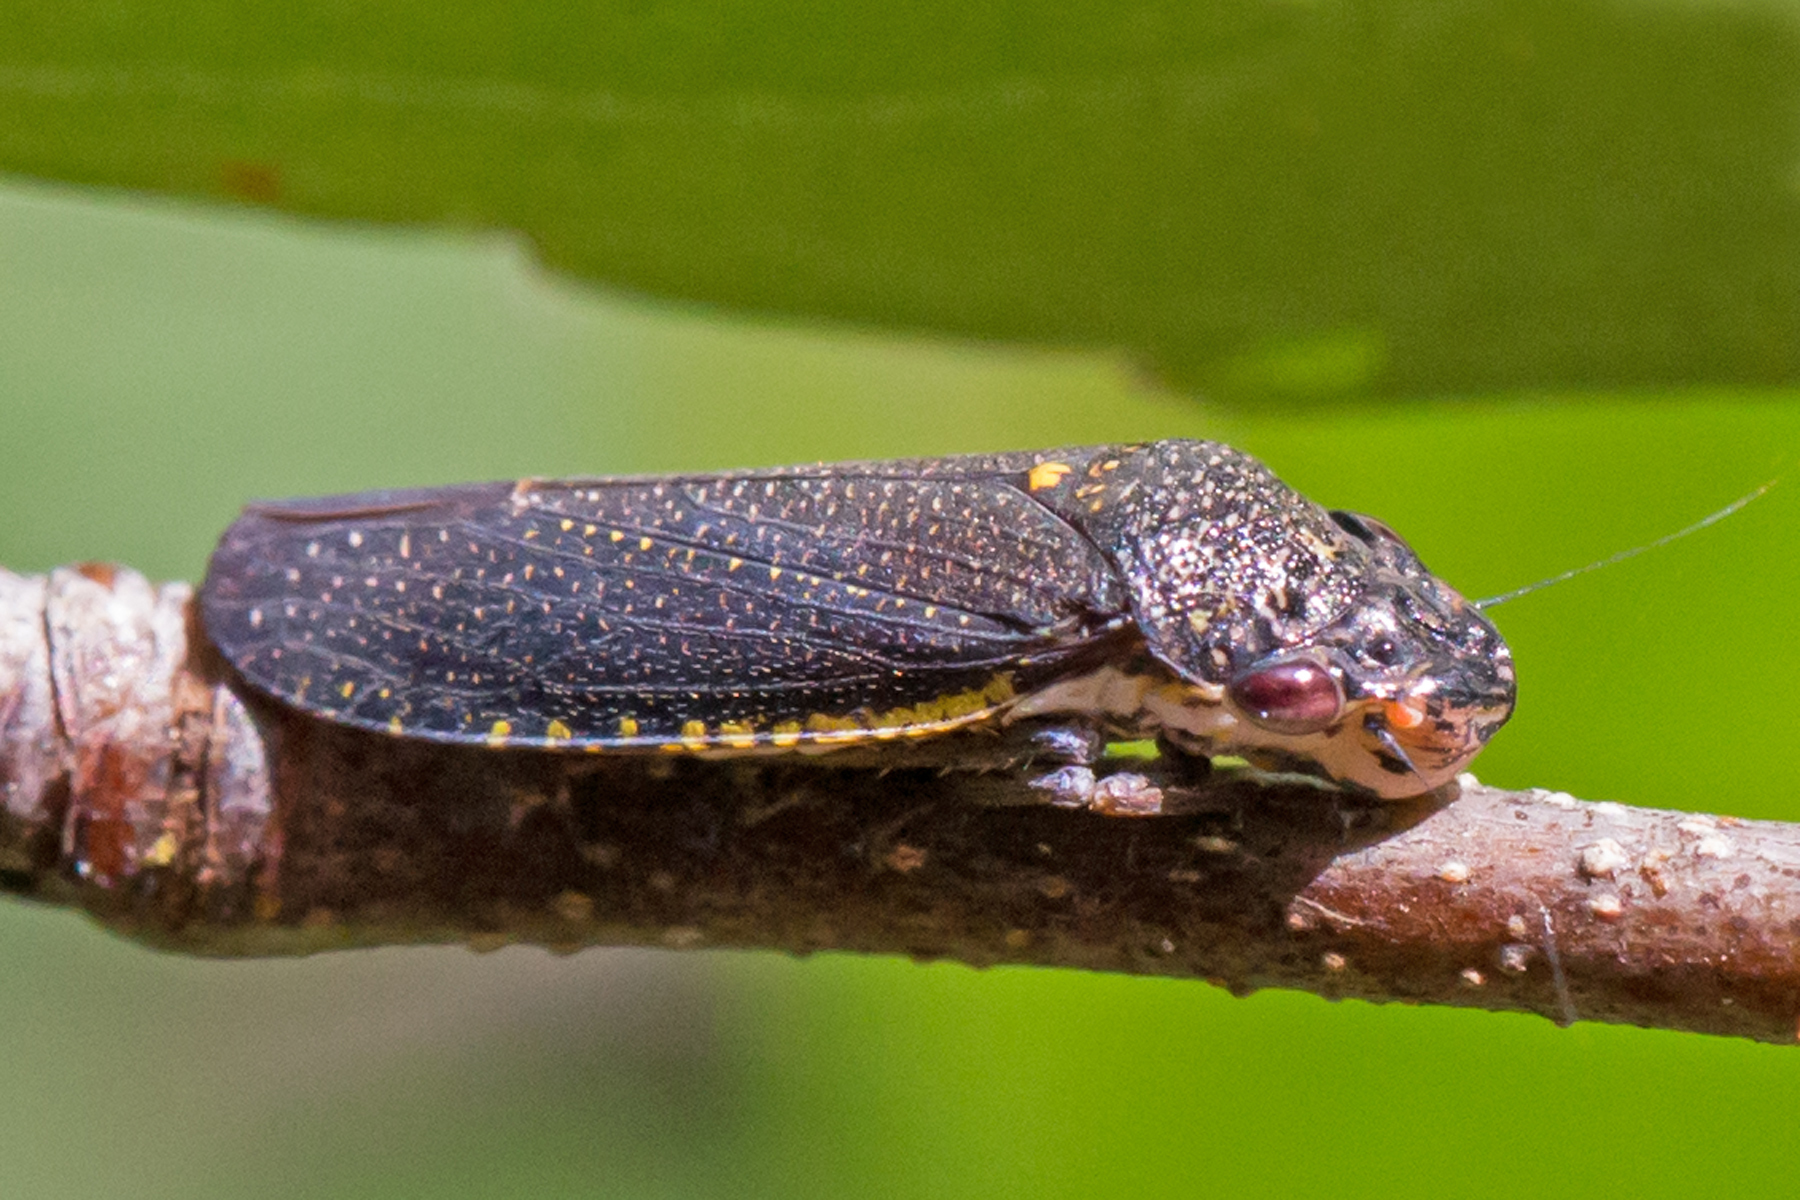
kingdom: Animalia
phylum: Arthropoda
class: Insecta
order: Hemiptera
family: Cicadellidae
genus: Paraulacizes
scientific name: Paraulacizes irrorata
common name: Speckled sharpshooter
